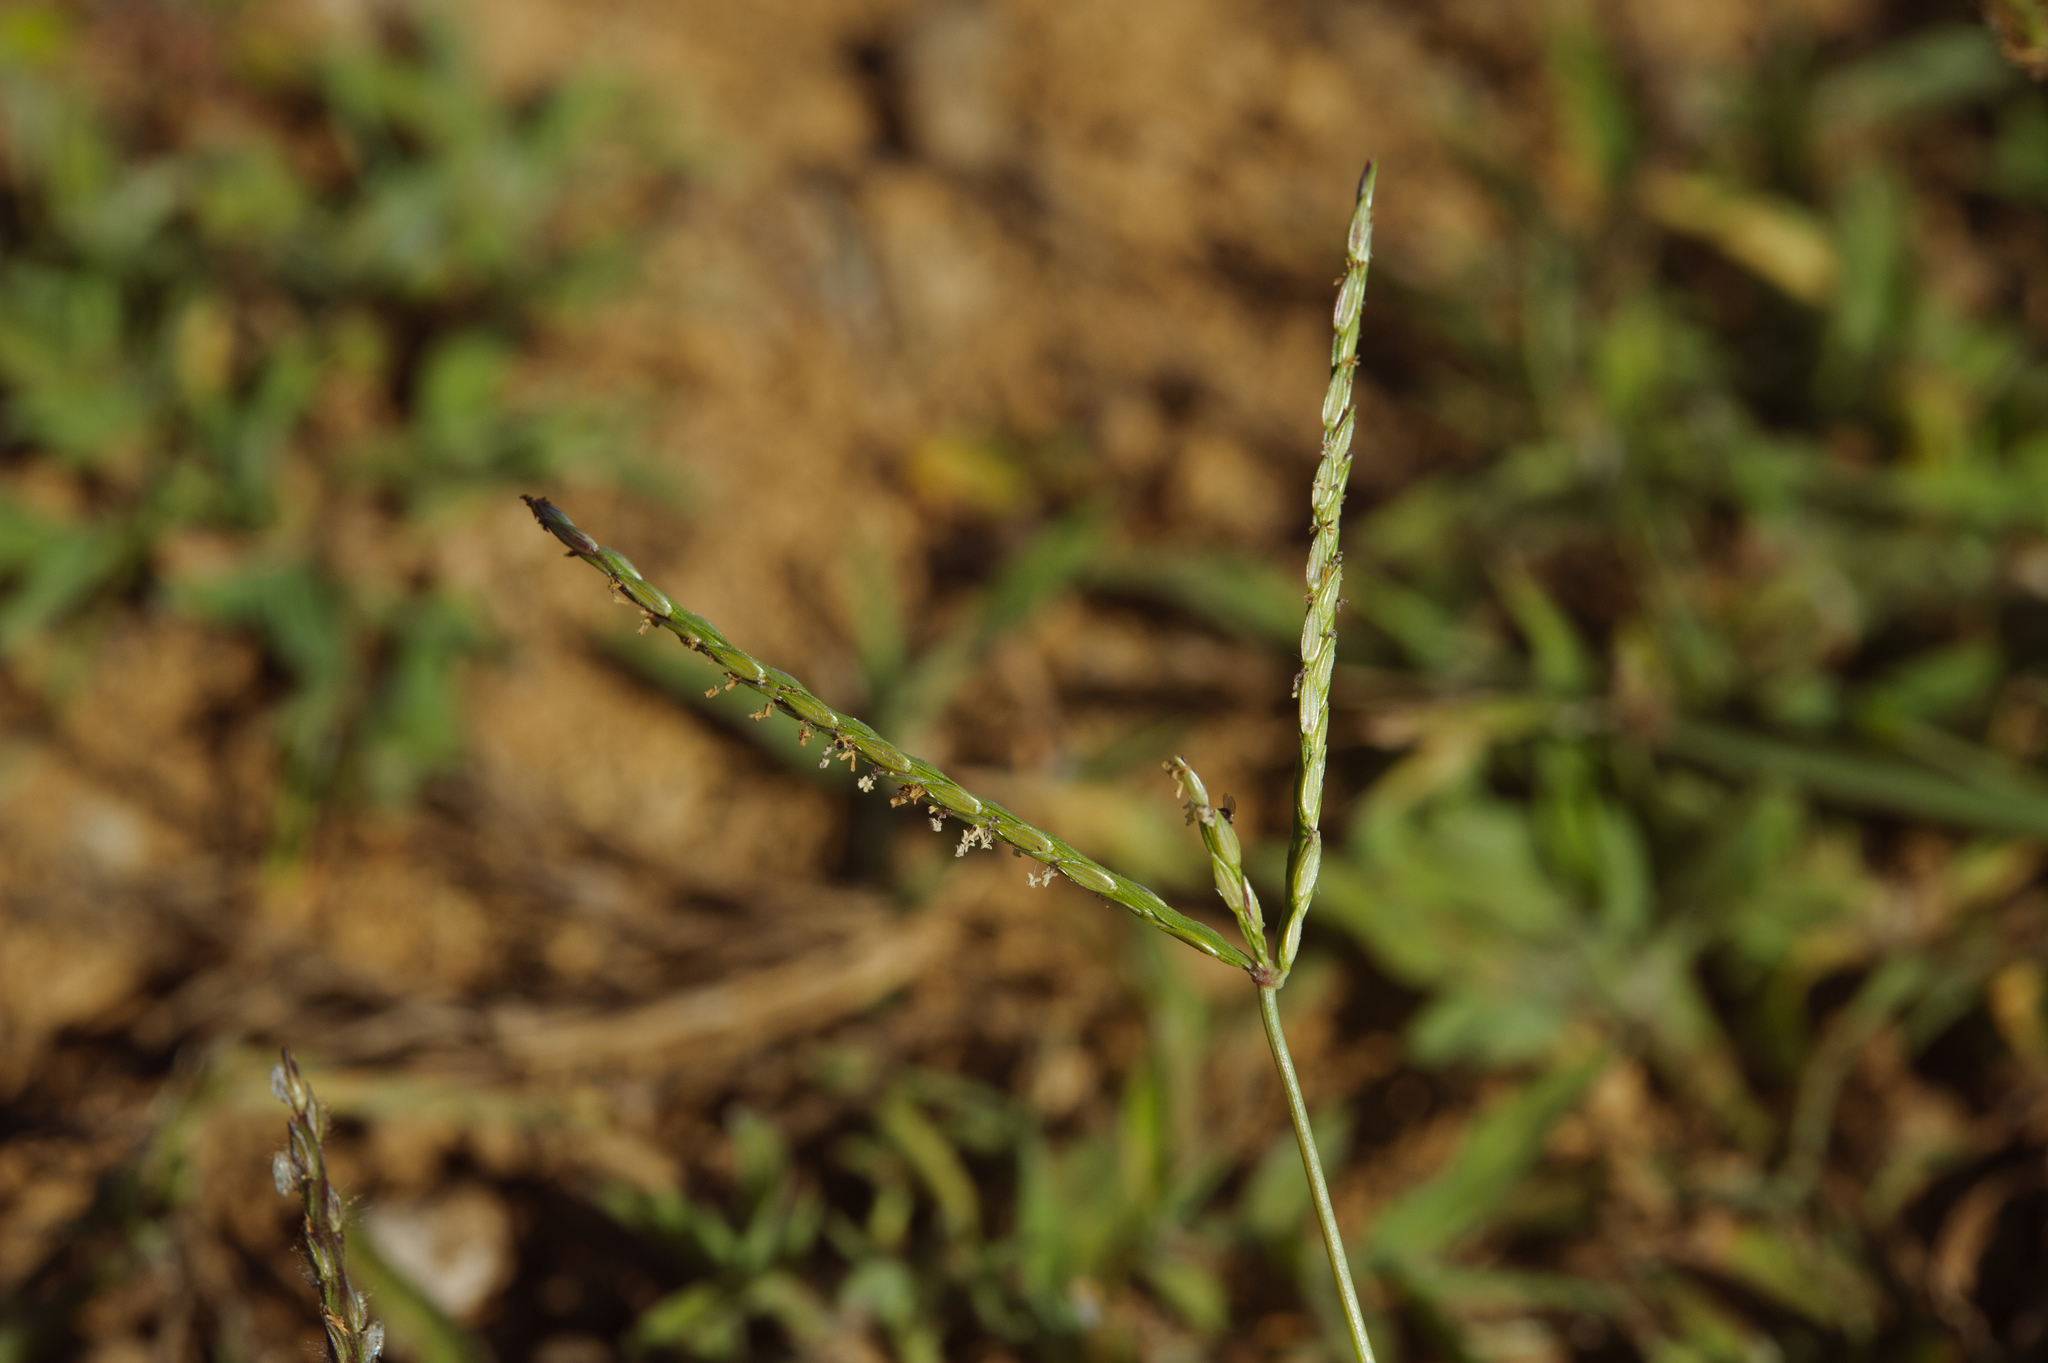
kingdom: Plantae
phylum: Tracheophyta
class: Liliopsida
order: Poales
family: Poaceae
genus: Digitaria
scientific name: Digitaria sericea
